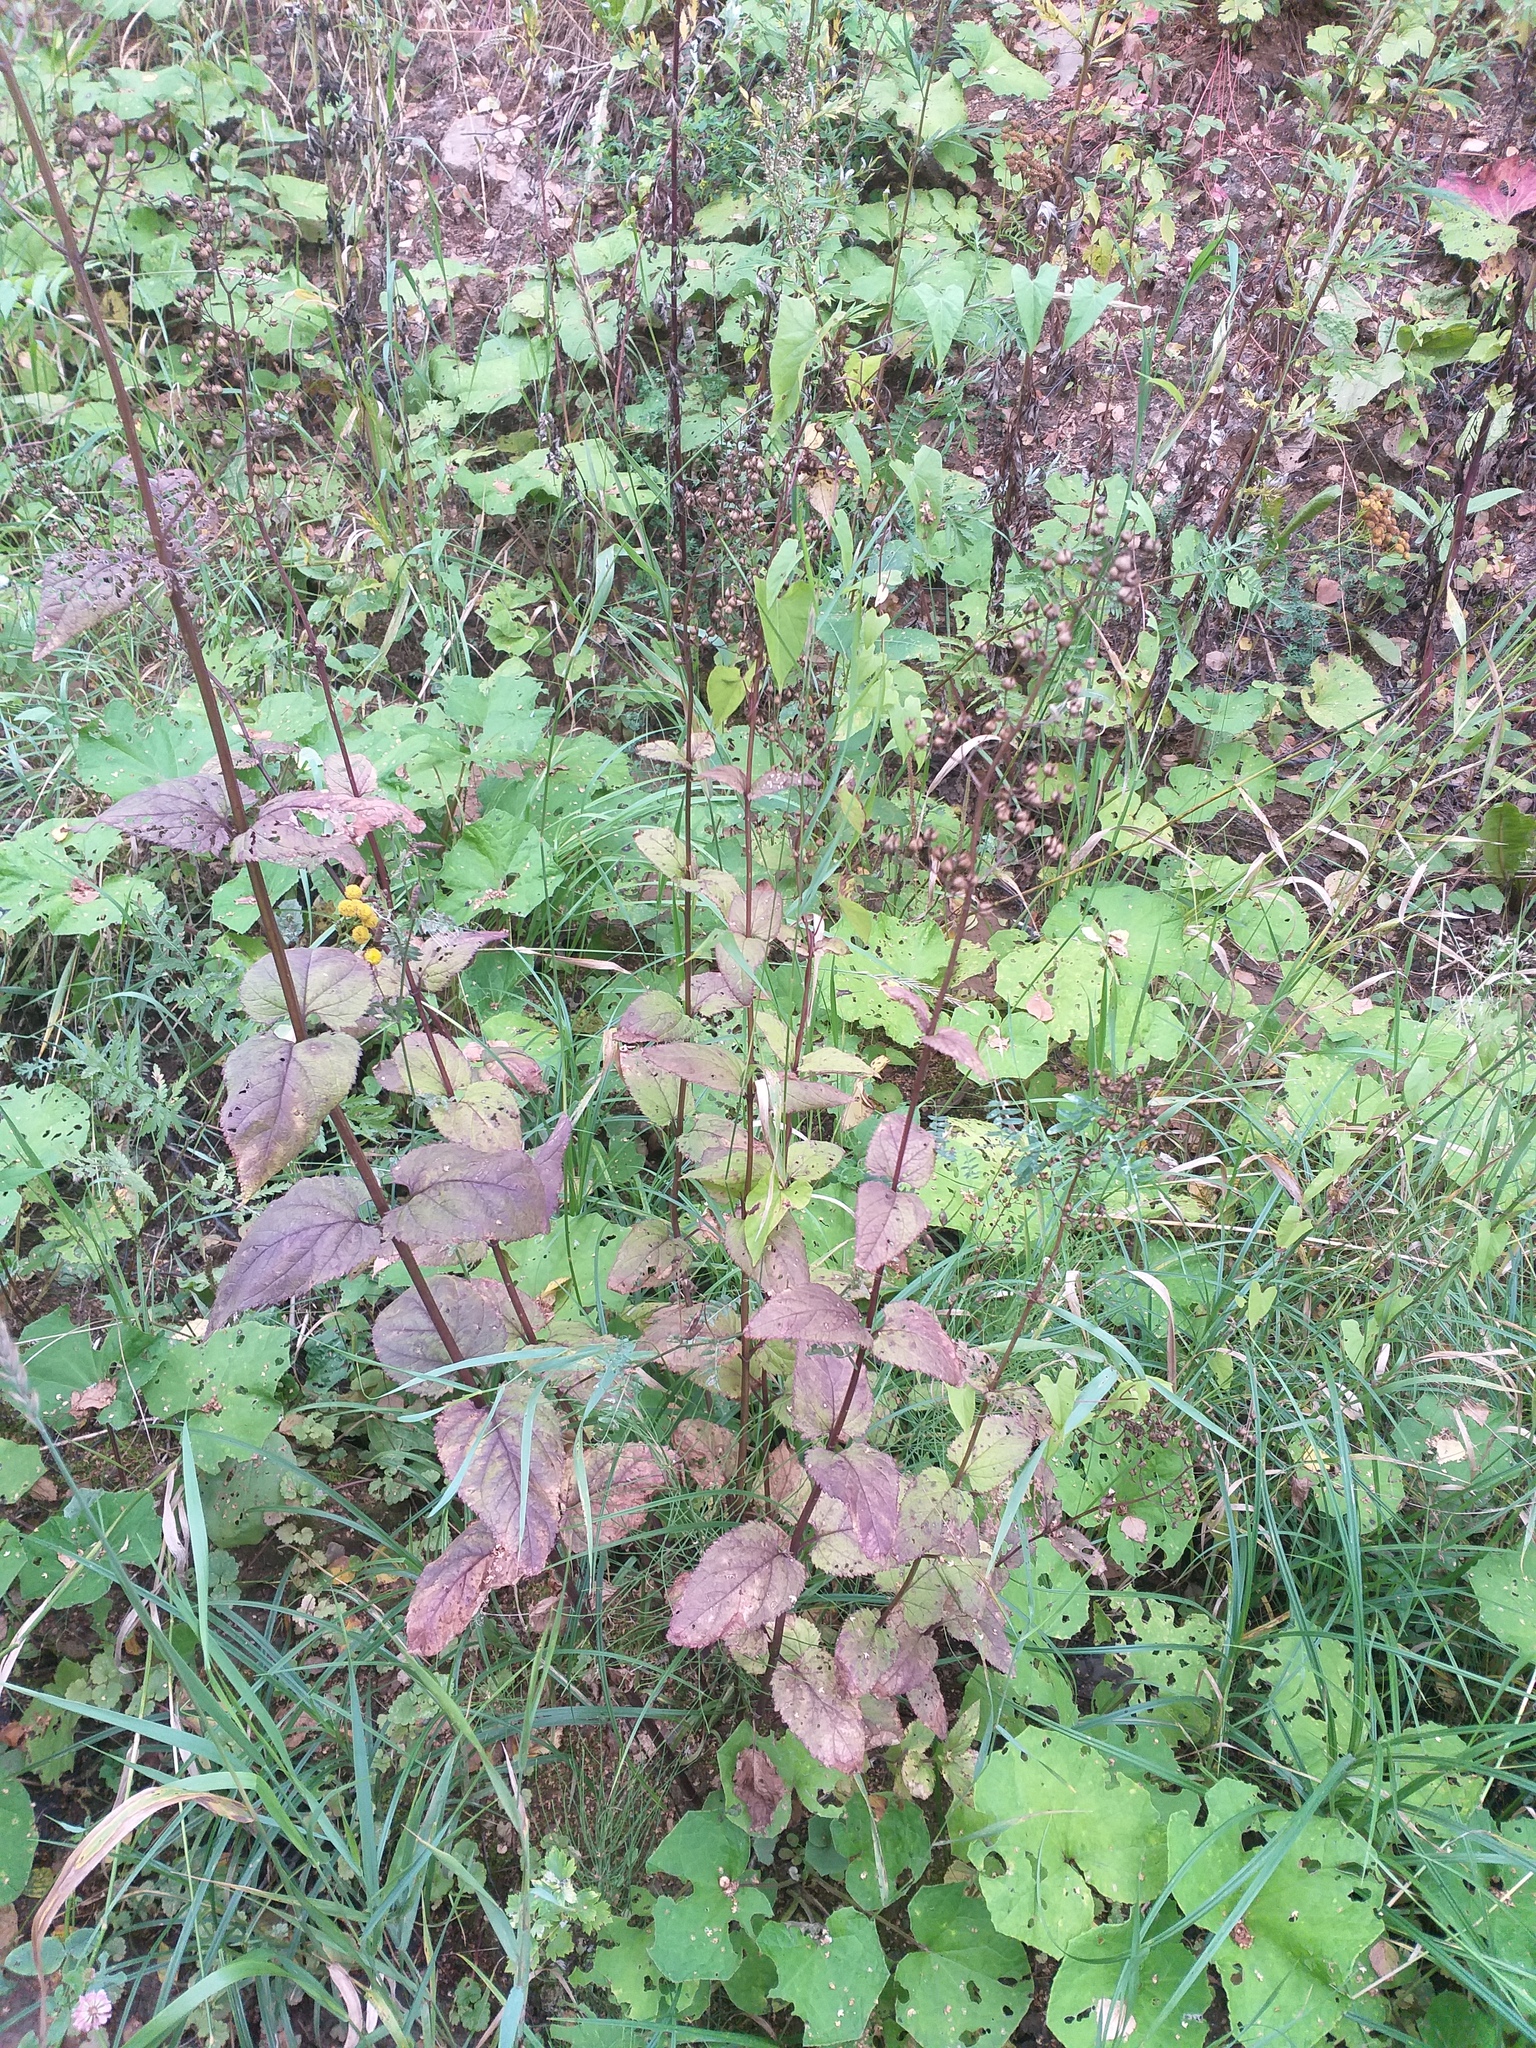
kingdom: Plantae
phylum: Tracheophyta
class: Magnoliopsida
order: Lamiales
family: Scrophulariaceae
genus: Scrophularia
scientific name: Scrophularia nodosa
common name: Common figwort
